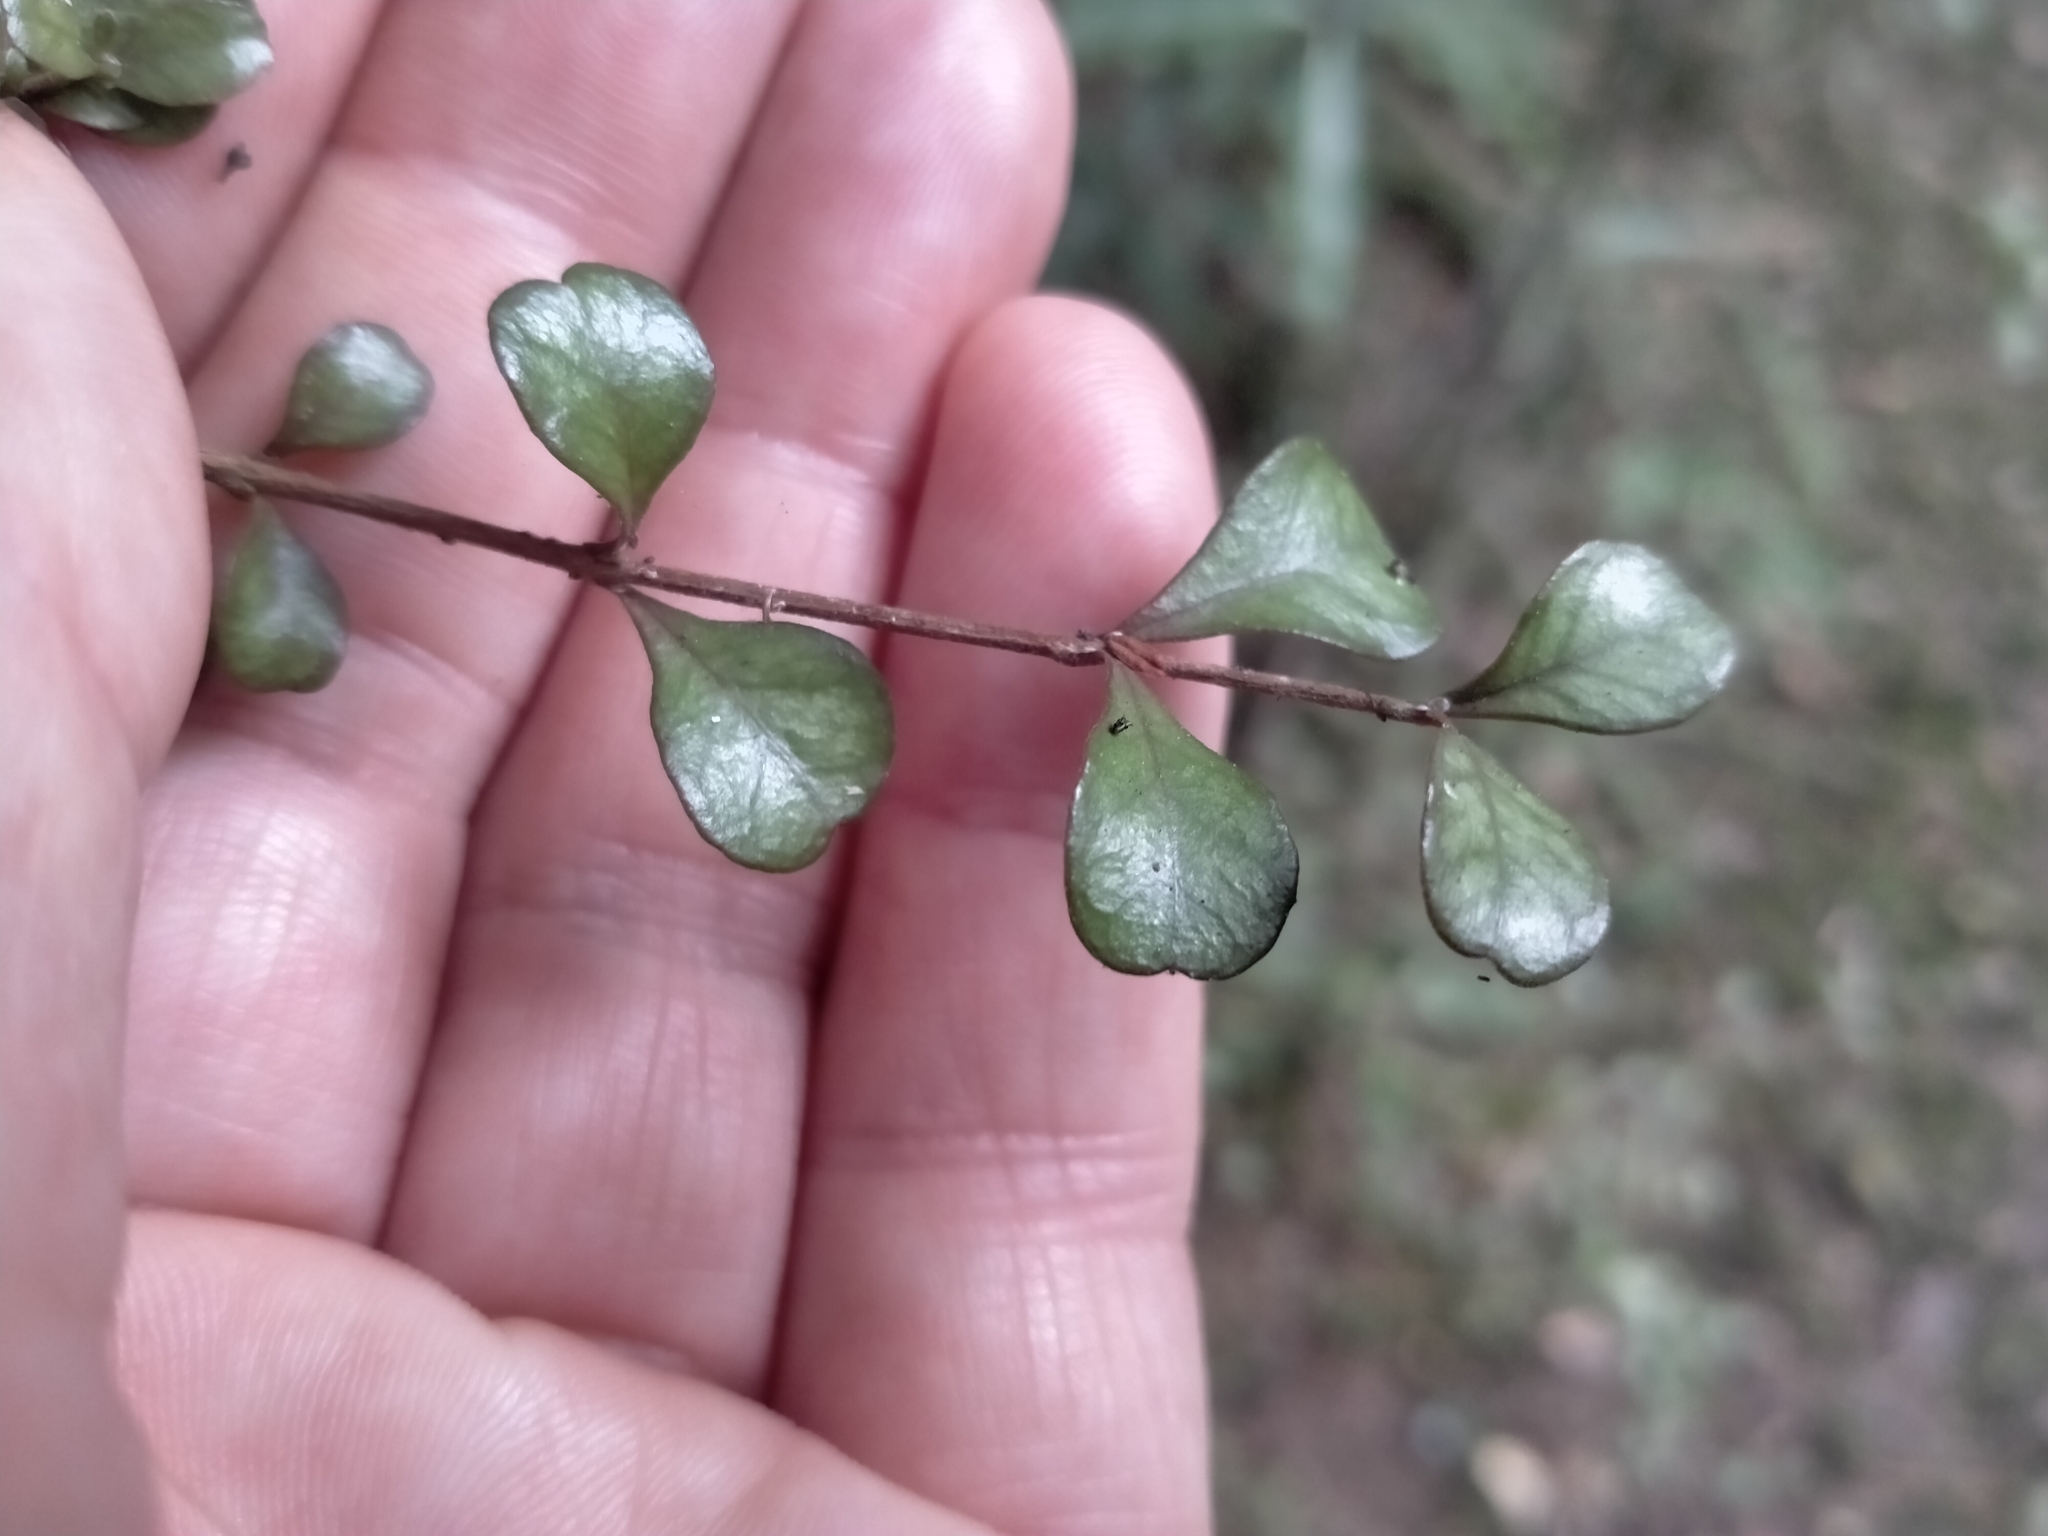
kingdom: Plantae
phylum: Tracheophyta
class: Magnoliopsida
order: Myrtales
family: Myrtaceae
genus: Lophomyrtus
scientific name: Lophomyrtus obcordata
